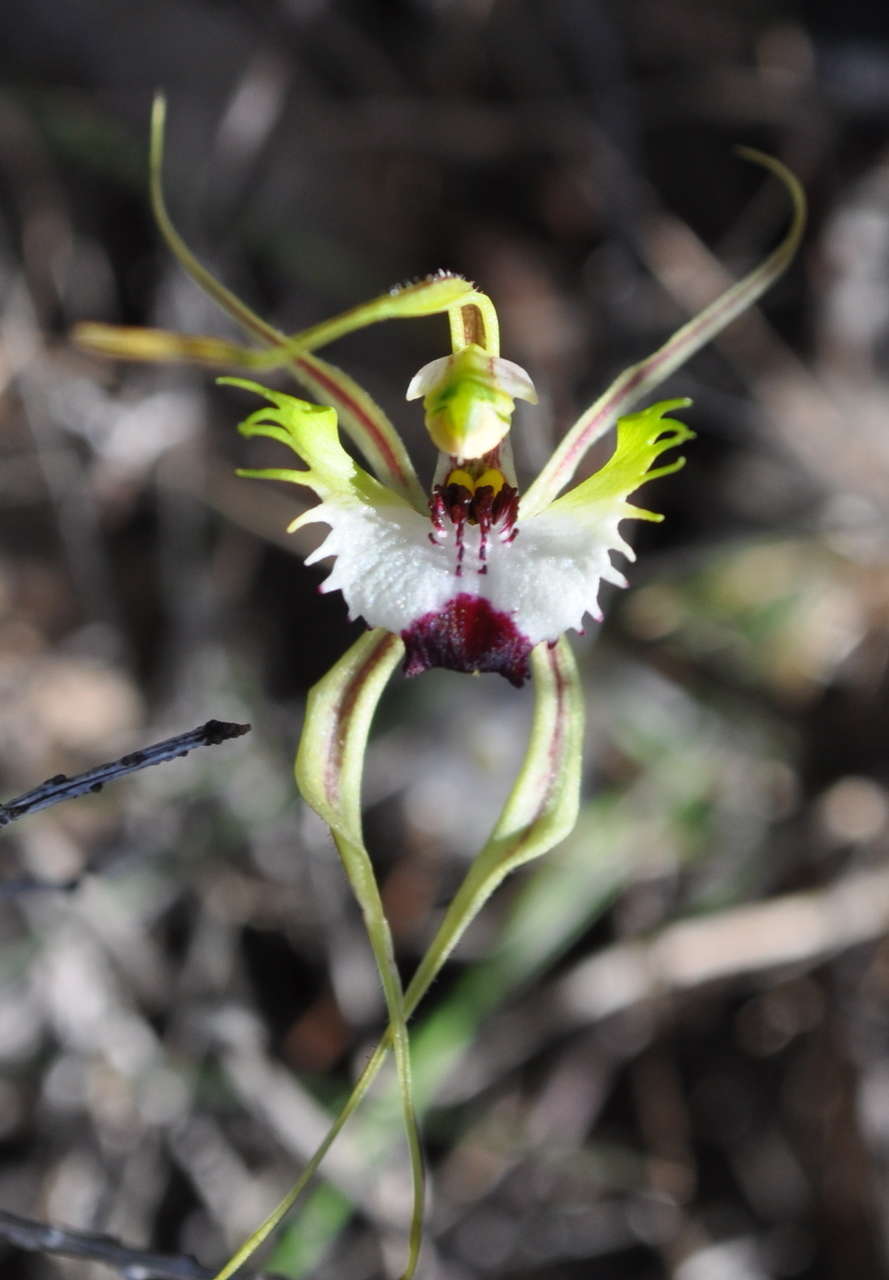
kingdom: Plantae
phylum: Tracheophyta
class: Liliopsida
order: Asparagales
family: Orchidaceae
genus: Caladenia
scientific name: Caladenia tentaculata
